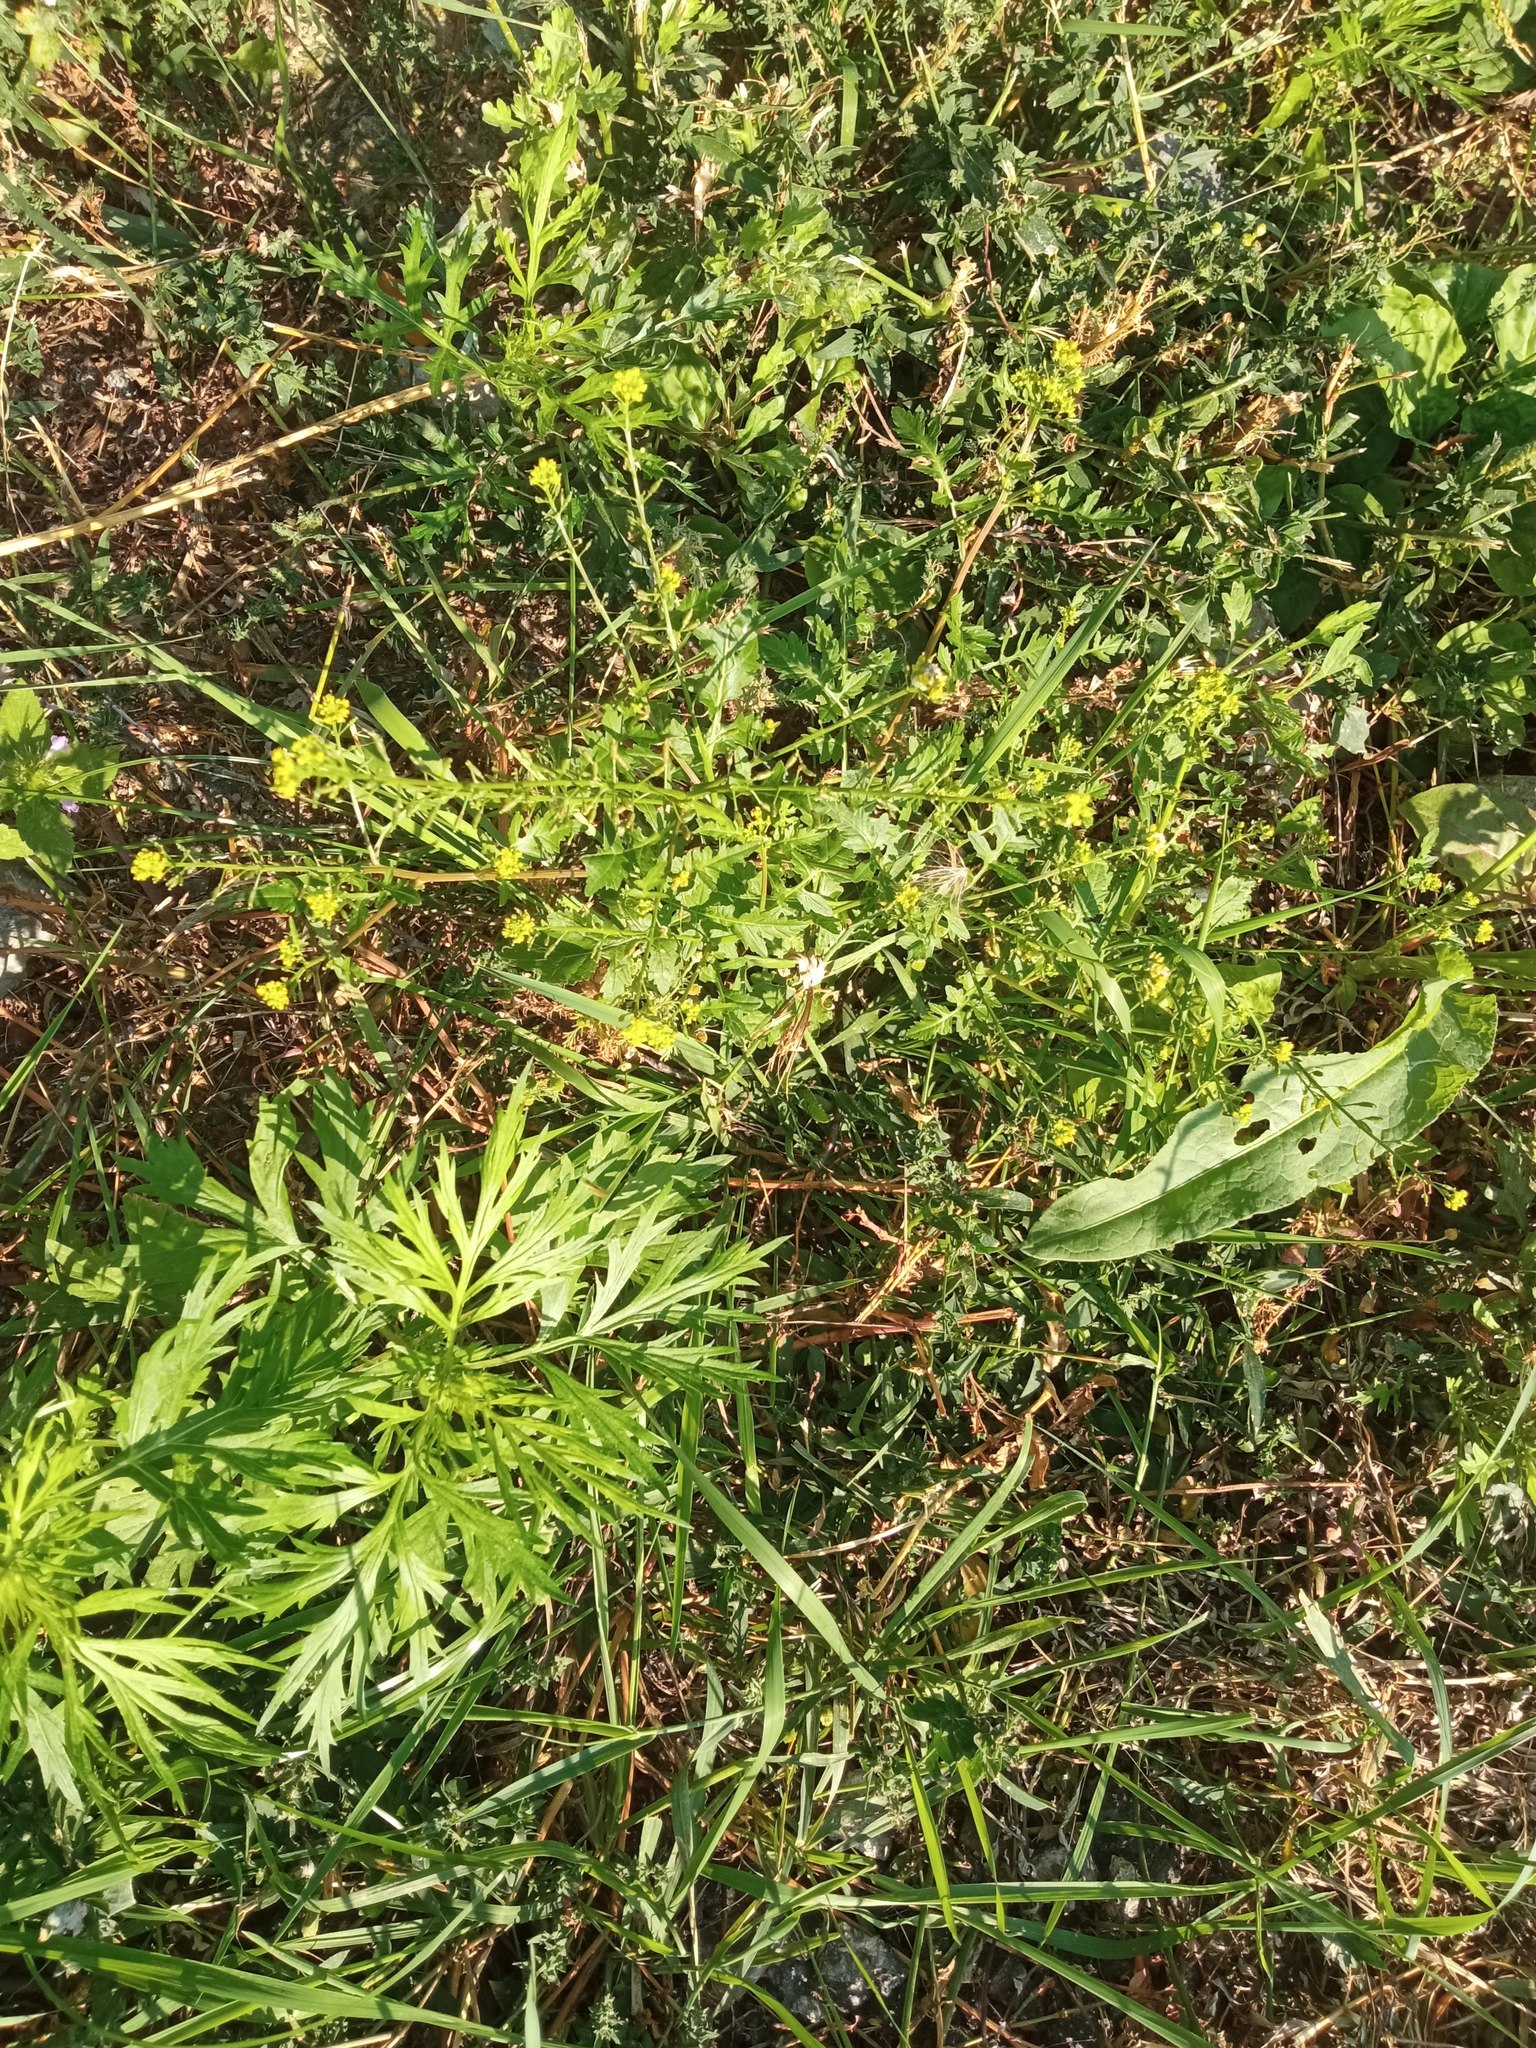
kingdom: Plantae
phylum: Tracheophyta
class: Magnoliopsida
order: Brassicales
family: Brassicaceae
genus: Rorippa
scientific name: Rorippa palustris
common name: Marsh yellow-cress
